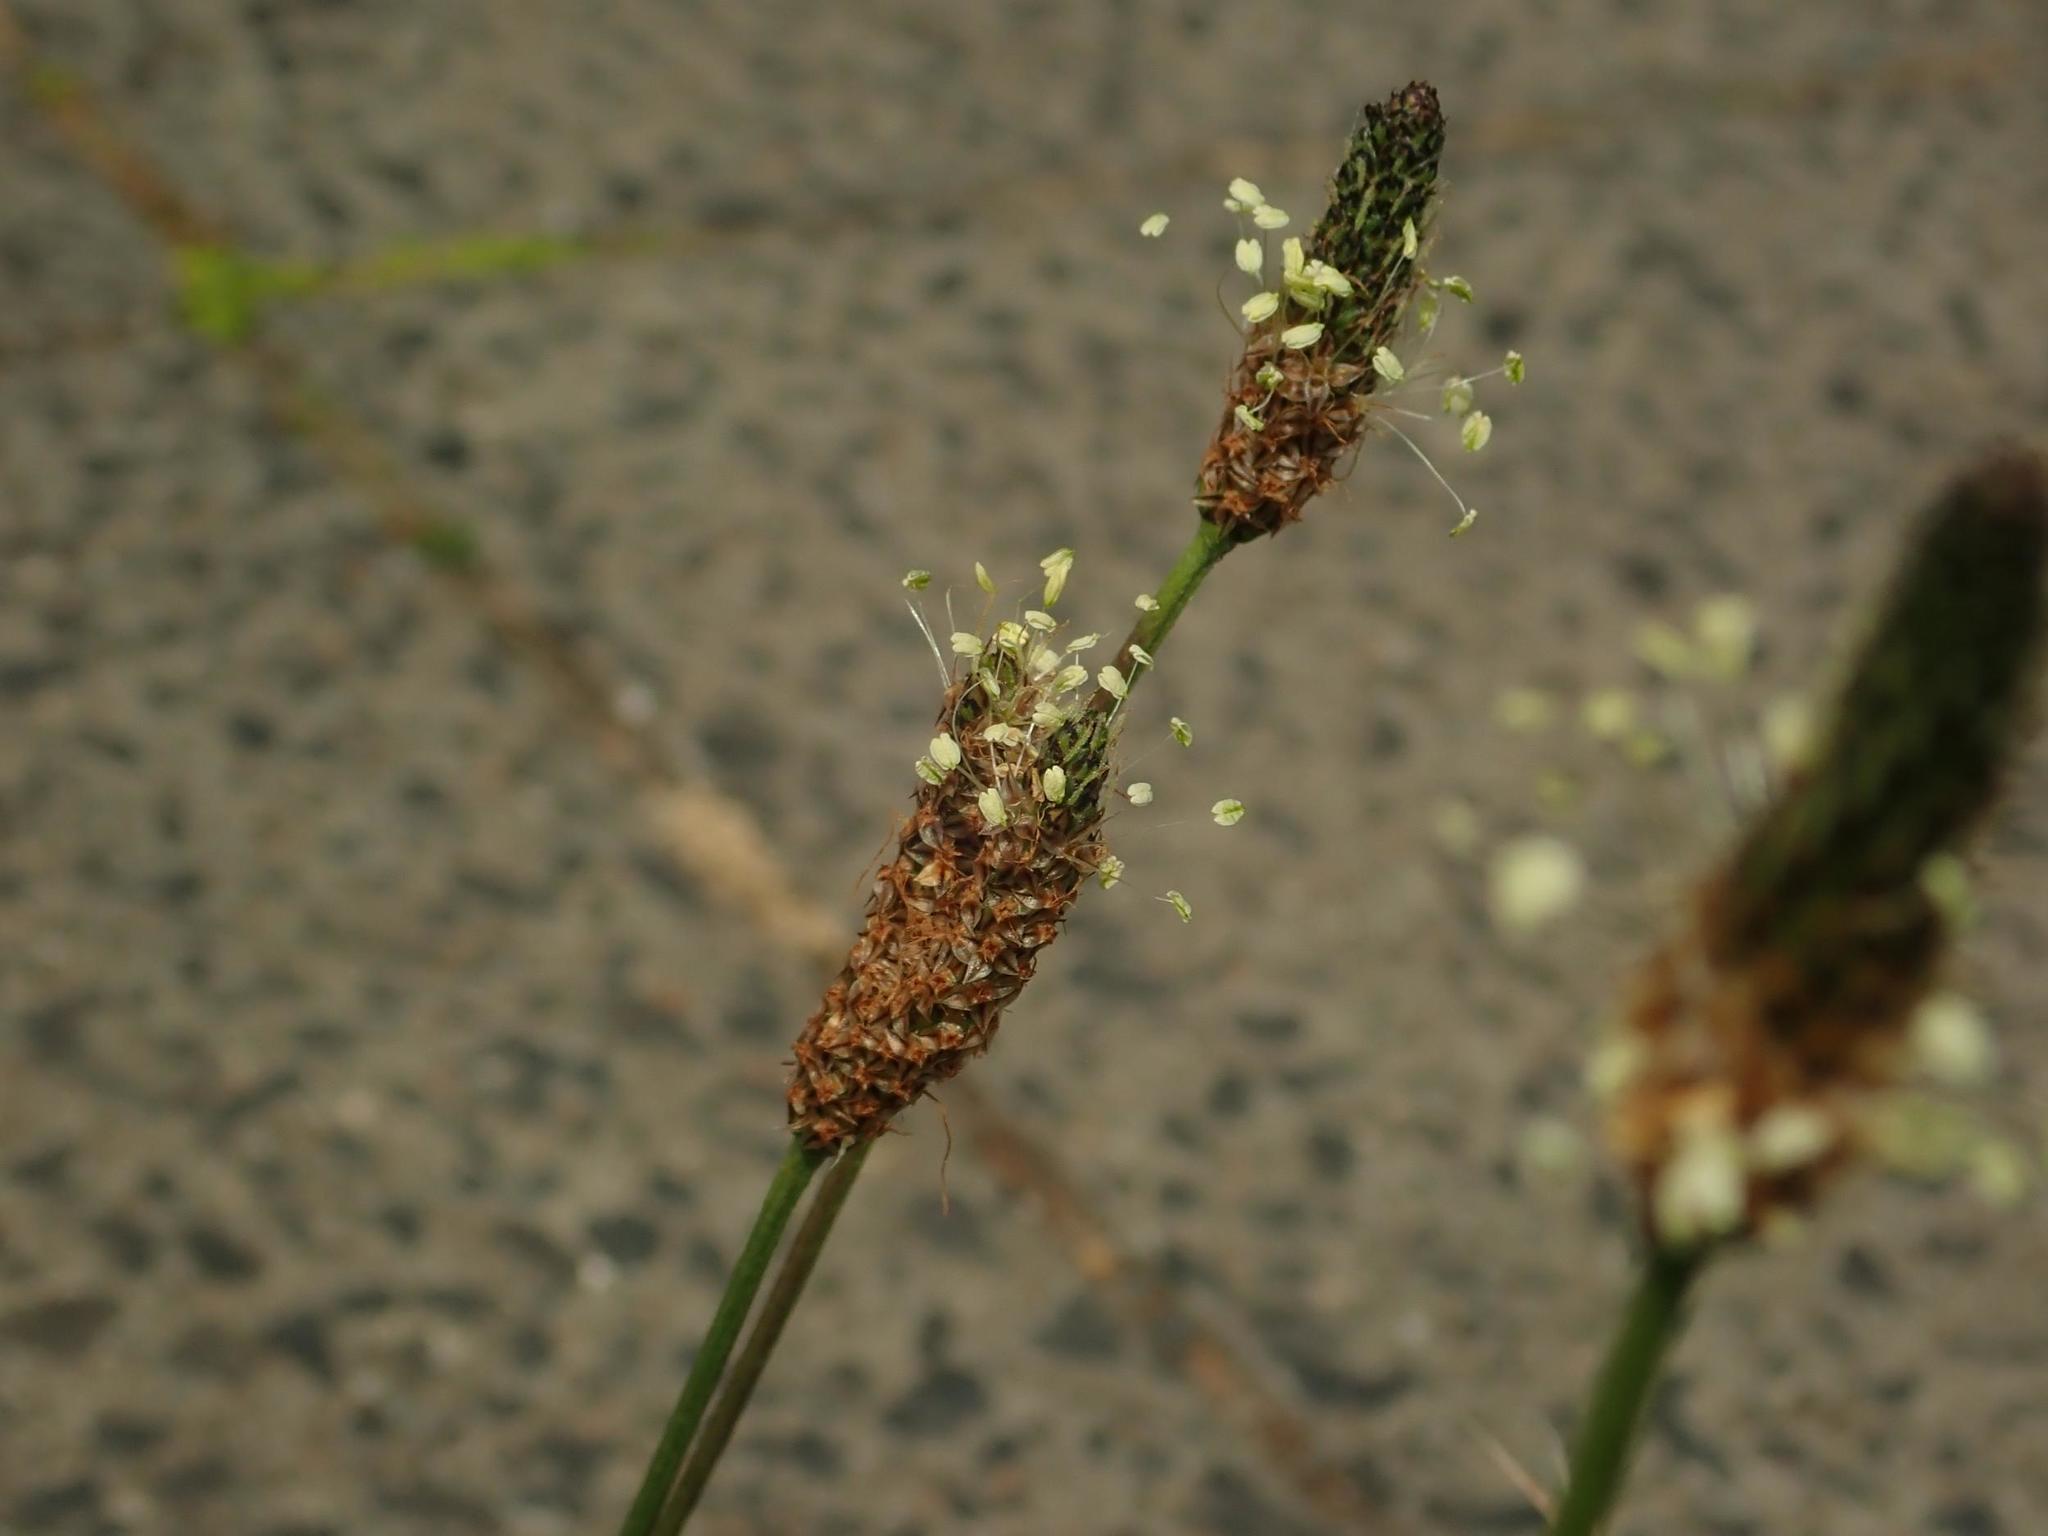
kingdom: Plantae
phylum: Tracheophyta
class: Magnoliopsida
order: Lamiales
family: Plantaginaceae
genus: Plantago
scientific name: Plantago lanceolata
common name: Ribwort plantain
